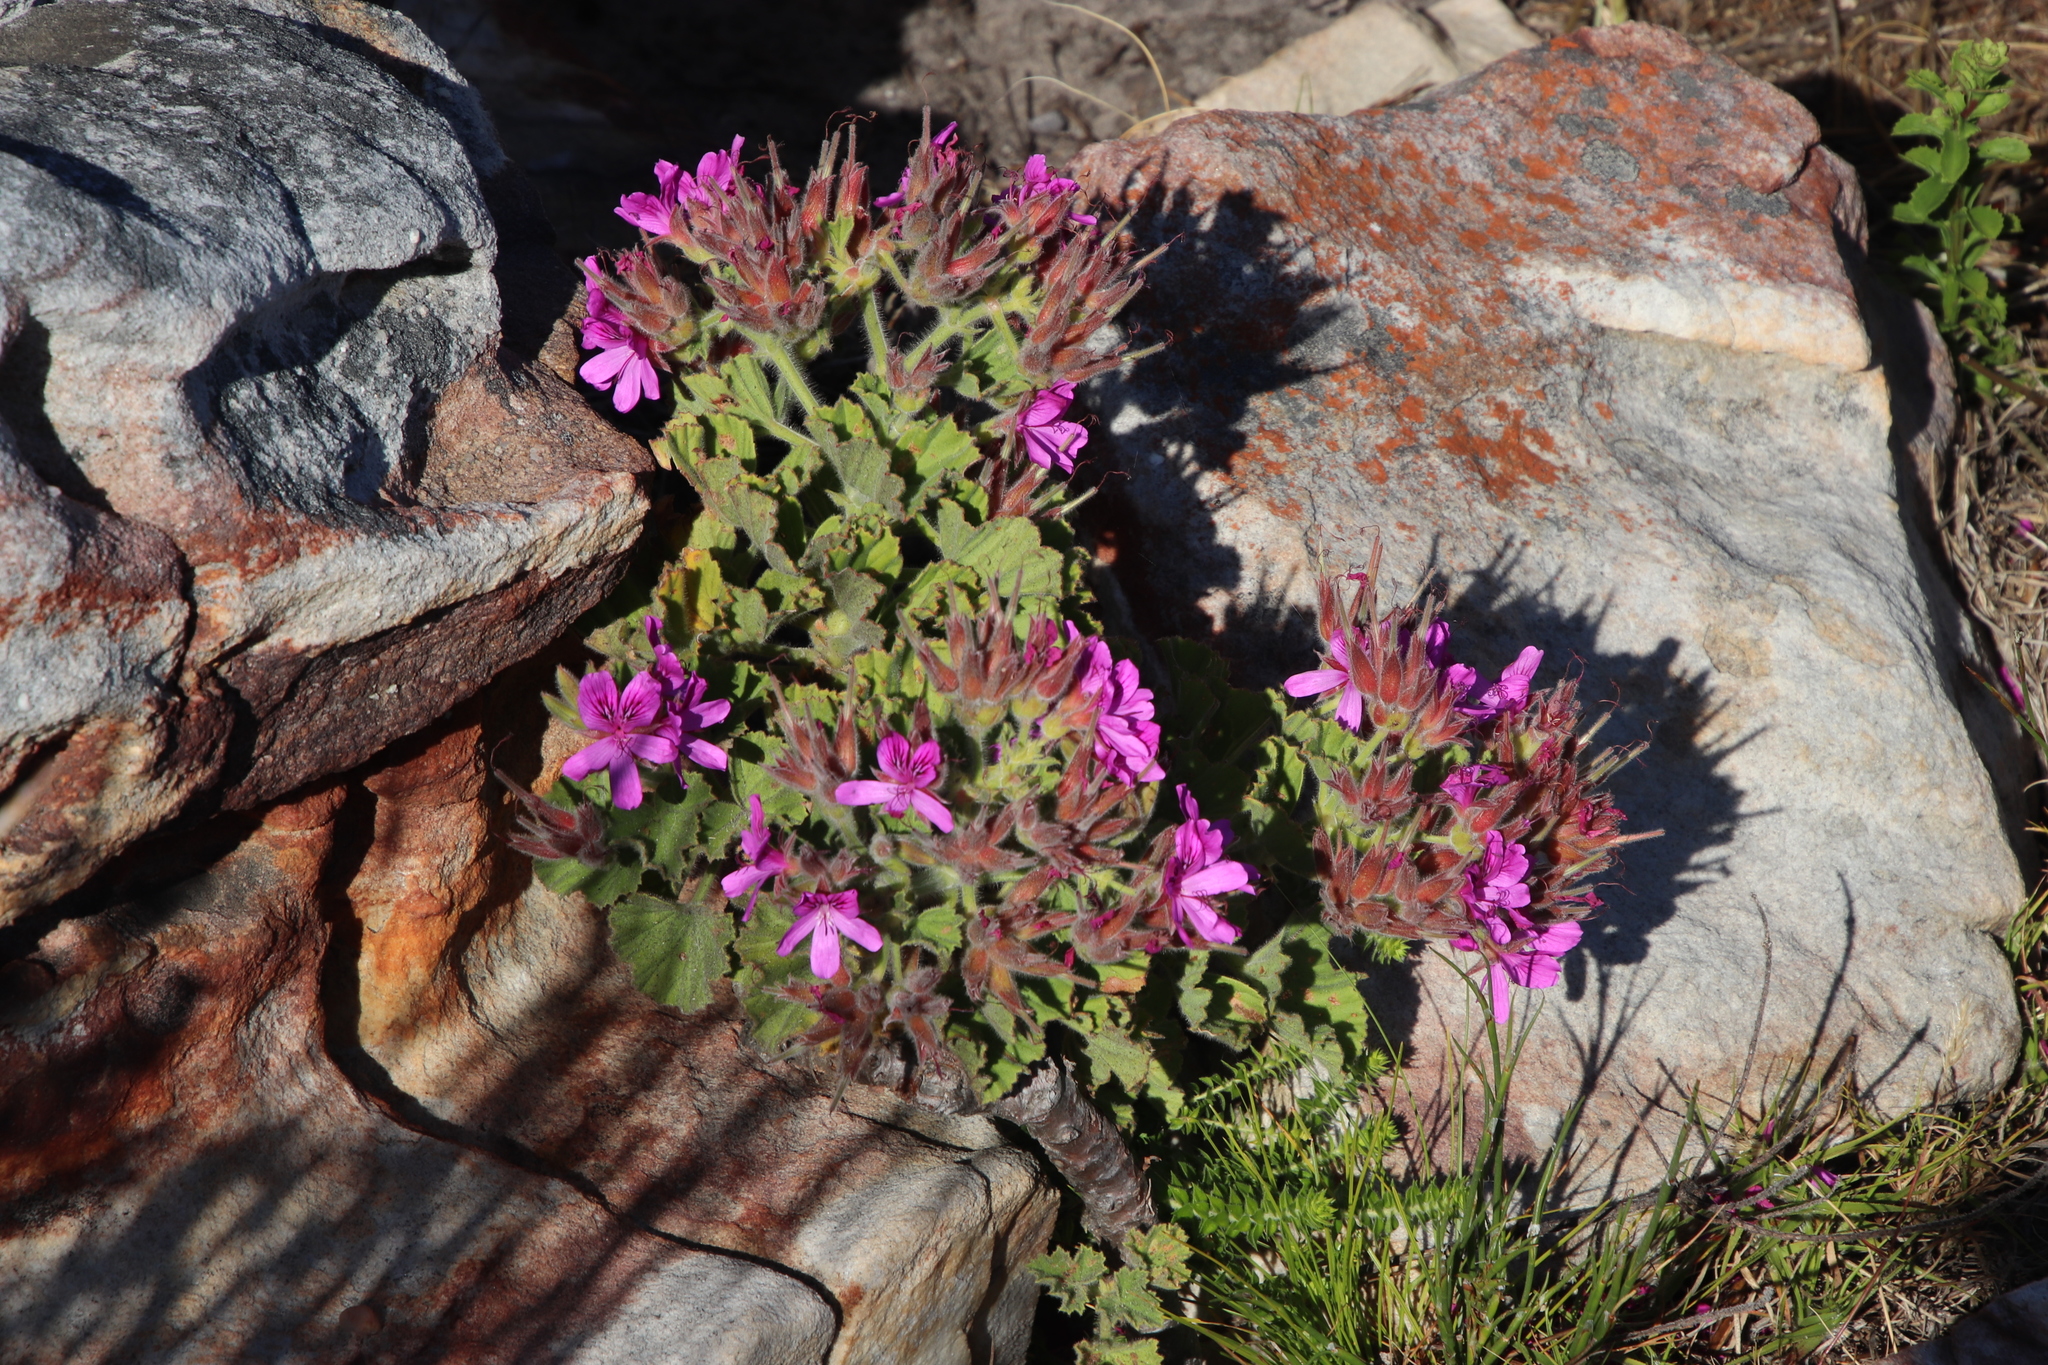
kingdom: Plantae
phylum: Tracheophyta
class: Magnoliopsida
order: Geraniales
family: Geraniaceae
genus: Pelargonium
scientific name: Pelargonium cucullatum
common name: Tree pelargonium
